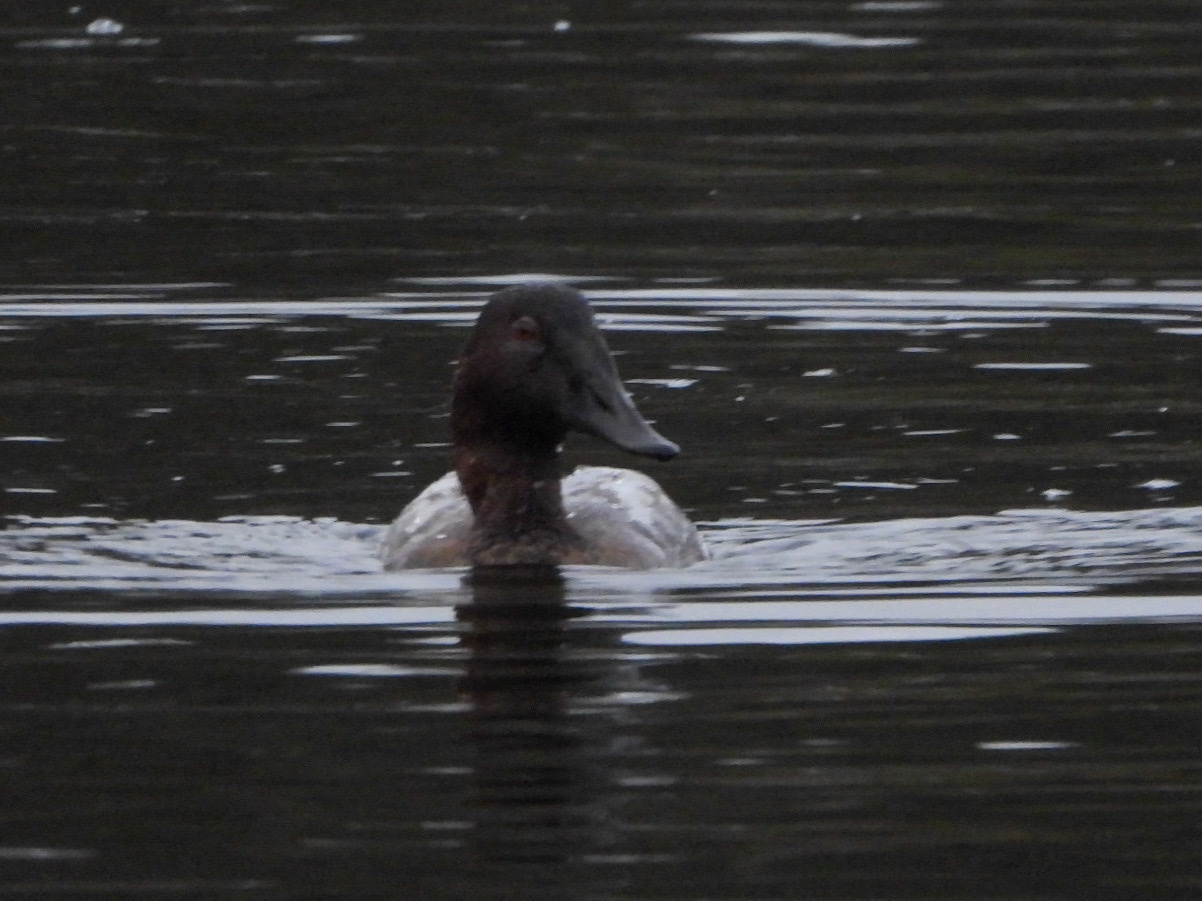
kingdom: Animalia
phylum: Chordata
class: Aves
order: Anseriformes
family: Anatidae
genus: Aythya
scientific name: Aythya valisineria
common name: Canvasback
